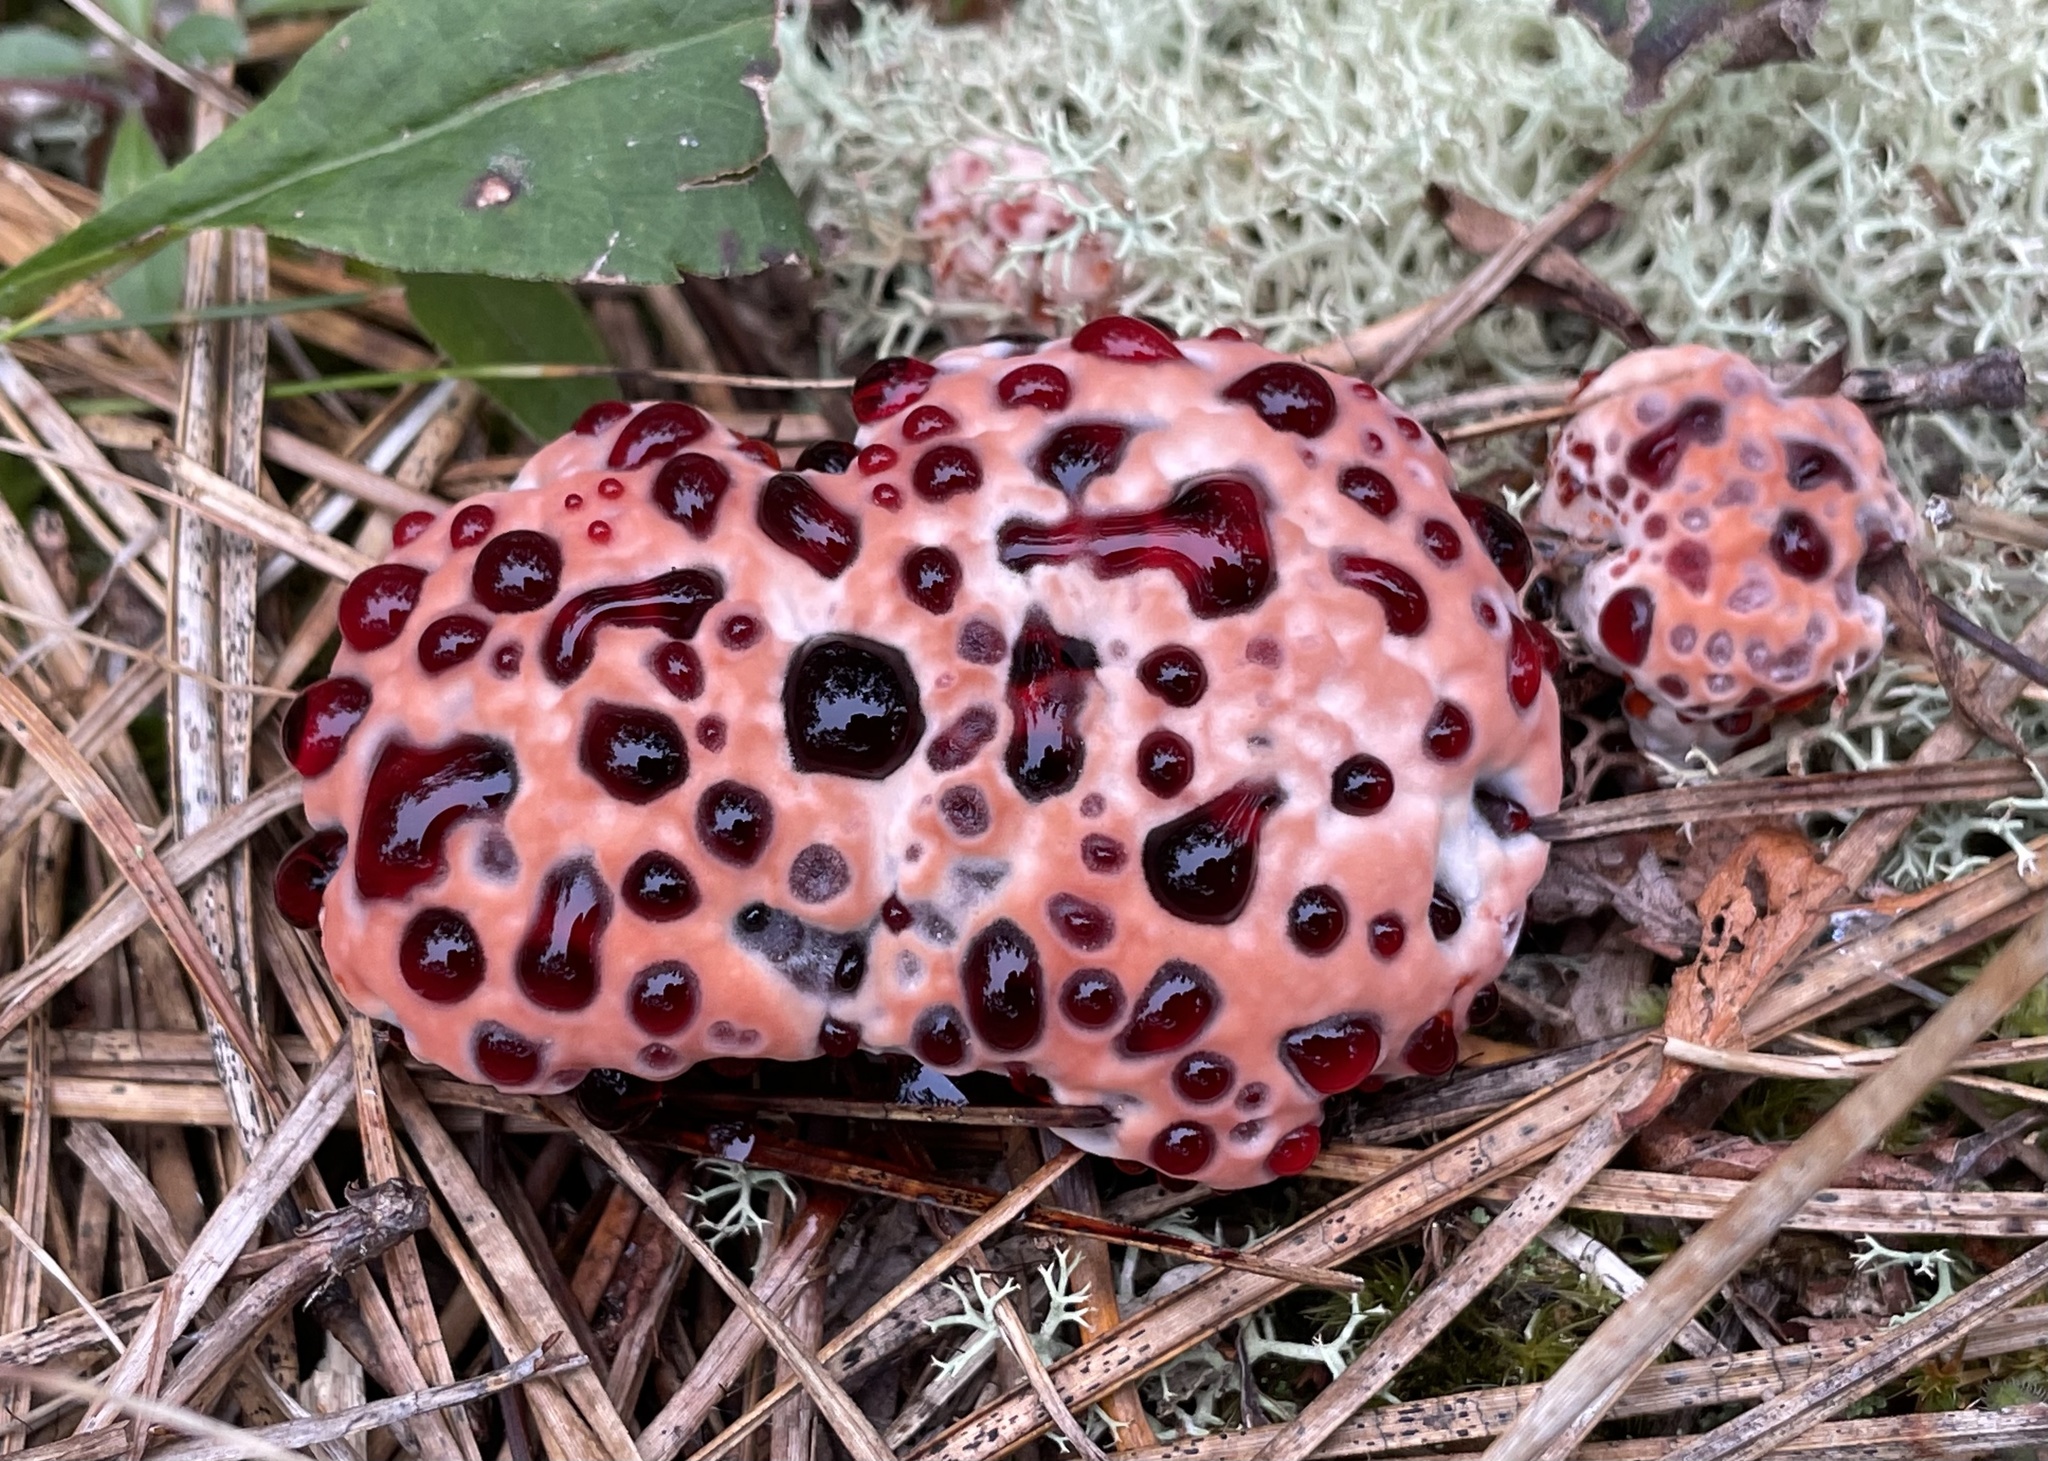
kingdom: Fungi
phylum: Basidiomycota
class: Agaricomycetes
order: Thelephorales
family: Bankeraceae
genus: Hydnellum
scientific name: Hydnellum peckii
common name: Devil's tooth
